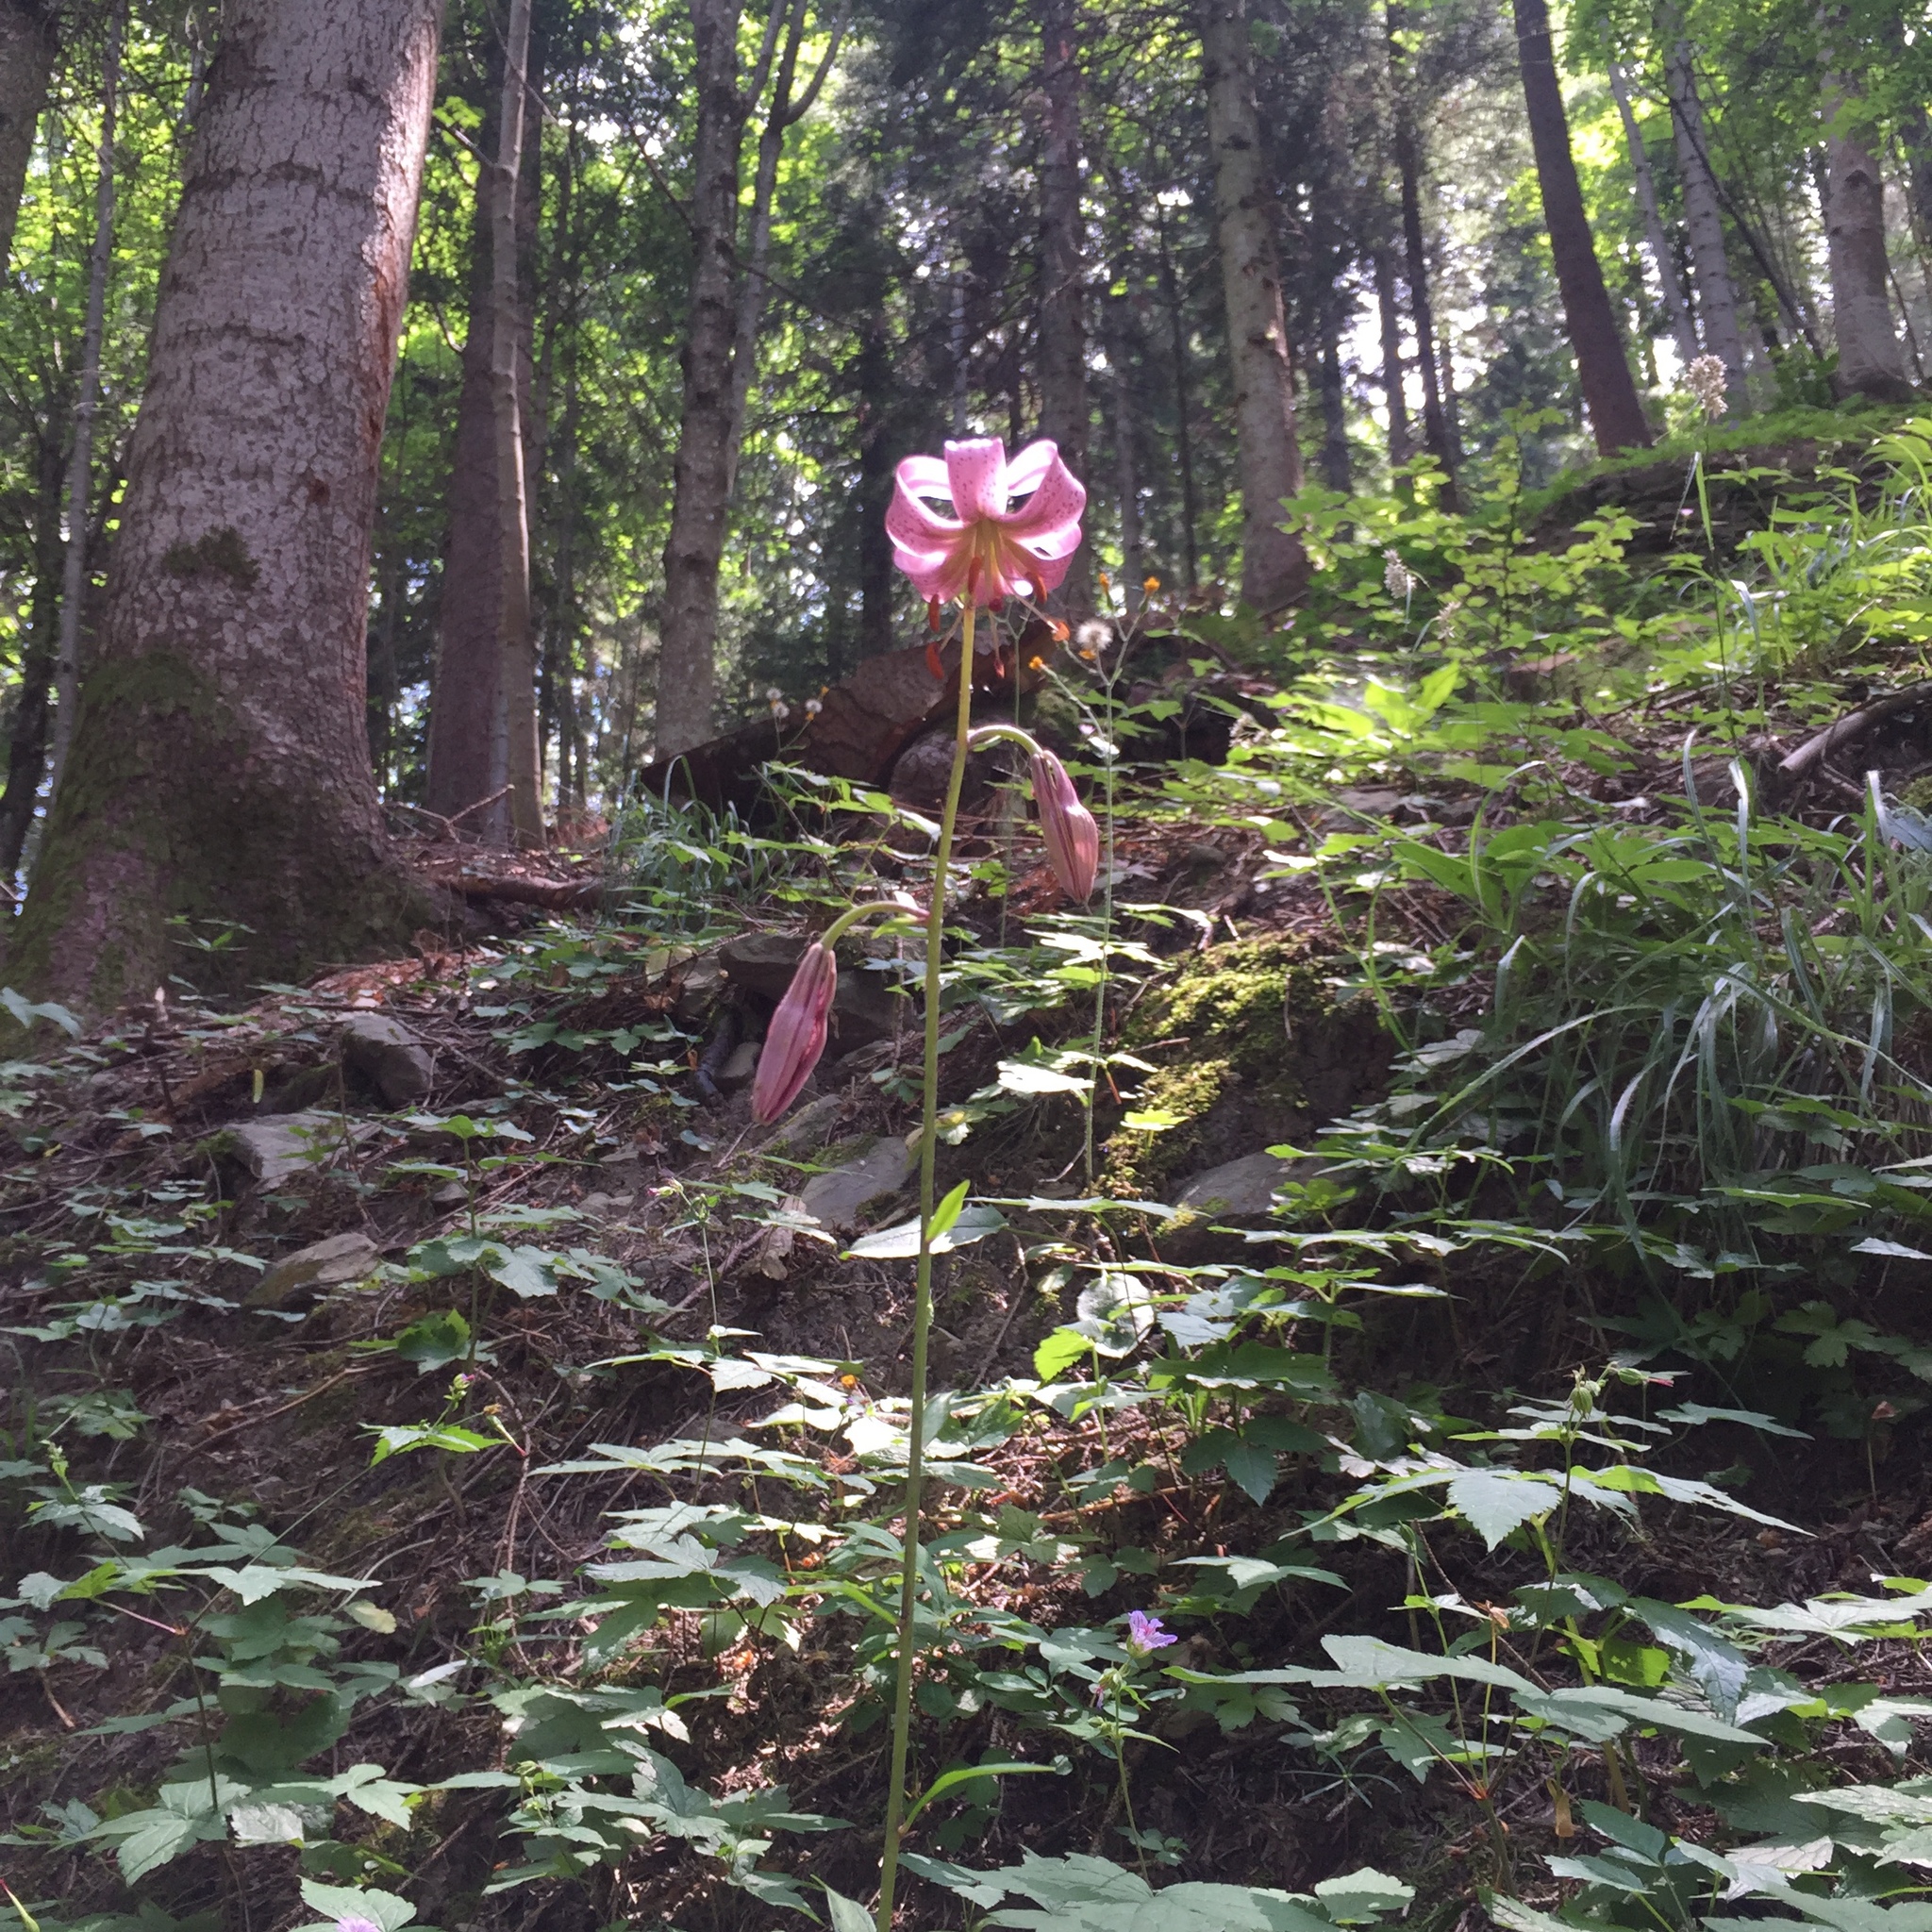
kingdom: Plantae
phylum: Tracheophyta
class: Liliopsida
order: Liliales
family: Liliaceae
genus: Lilium
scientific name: Lilium martagon
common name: Martagon lily
